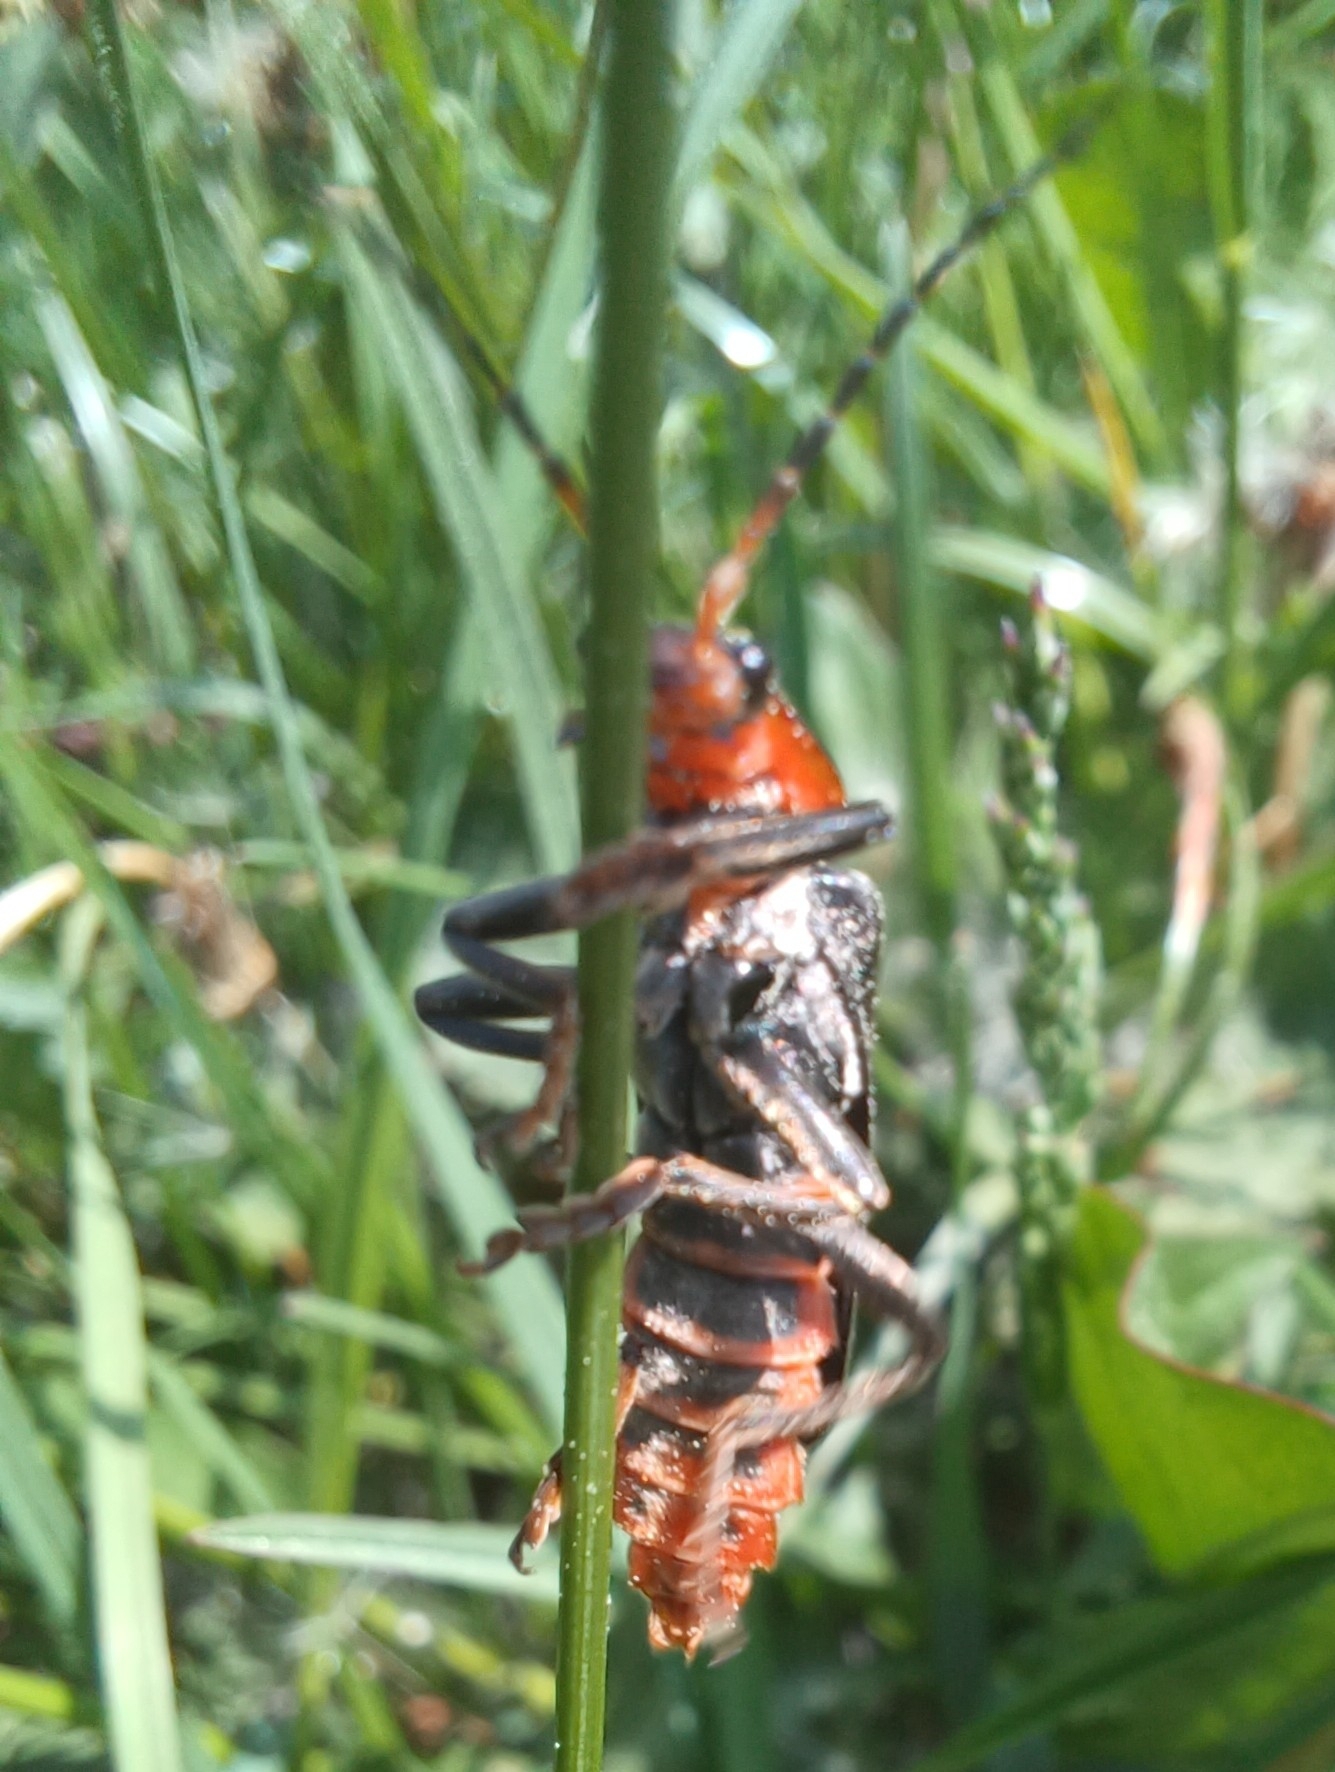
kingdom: Animalia
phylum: Arthropoda
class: Insecta
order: Coleoptera
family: Cantharidae
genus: Cantharis
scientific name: Cantharis fusca
